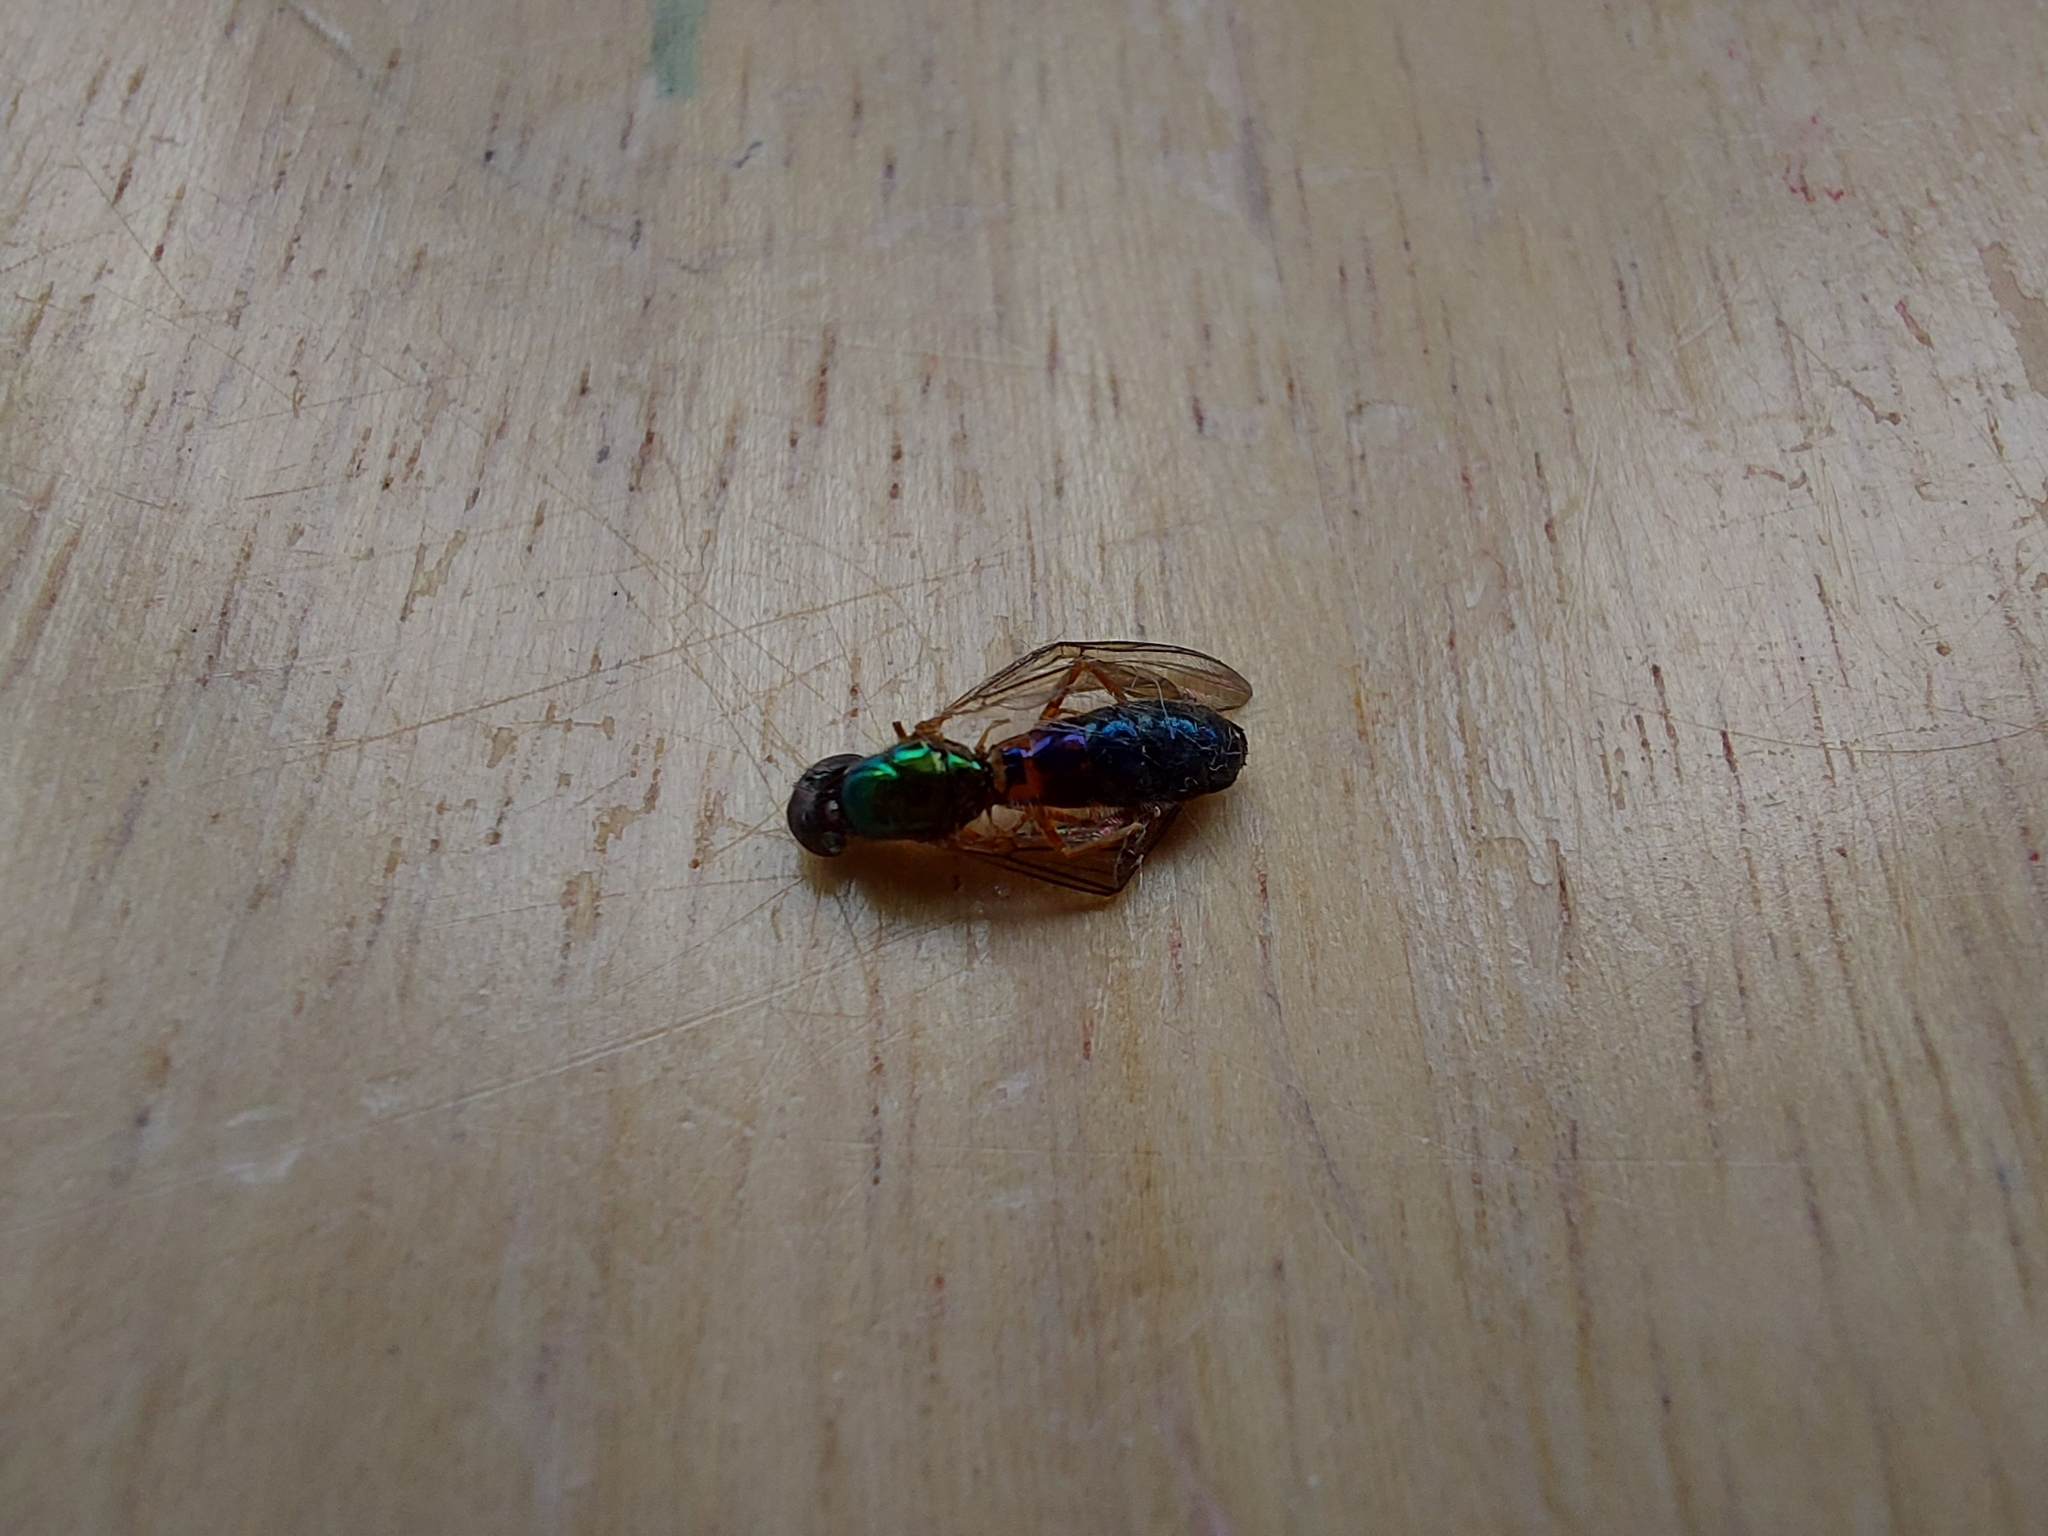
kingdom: Animalia
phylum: Arthropoda
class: Insecta
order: Diptera
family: Stratiomyidae
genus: Sargus
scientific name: Sargus bipunctatus
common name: Twin-spot centurion
